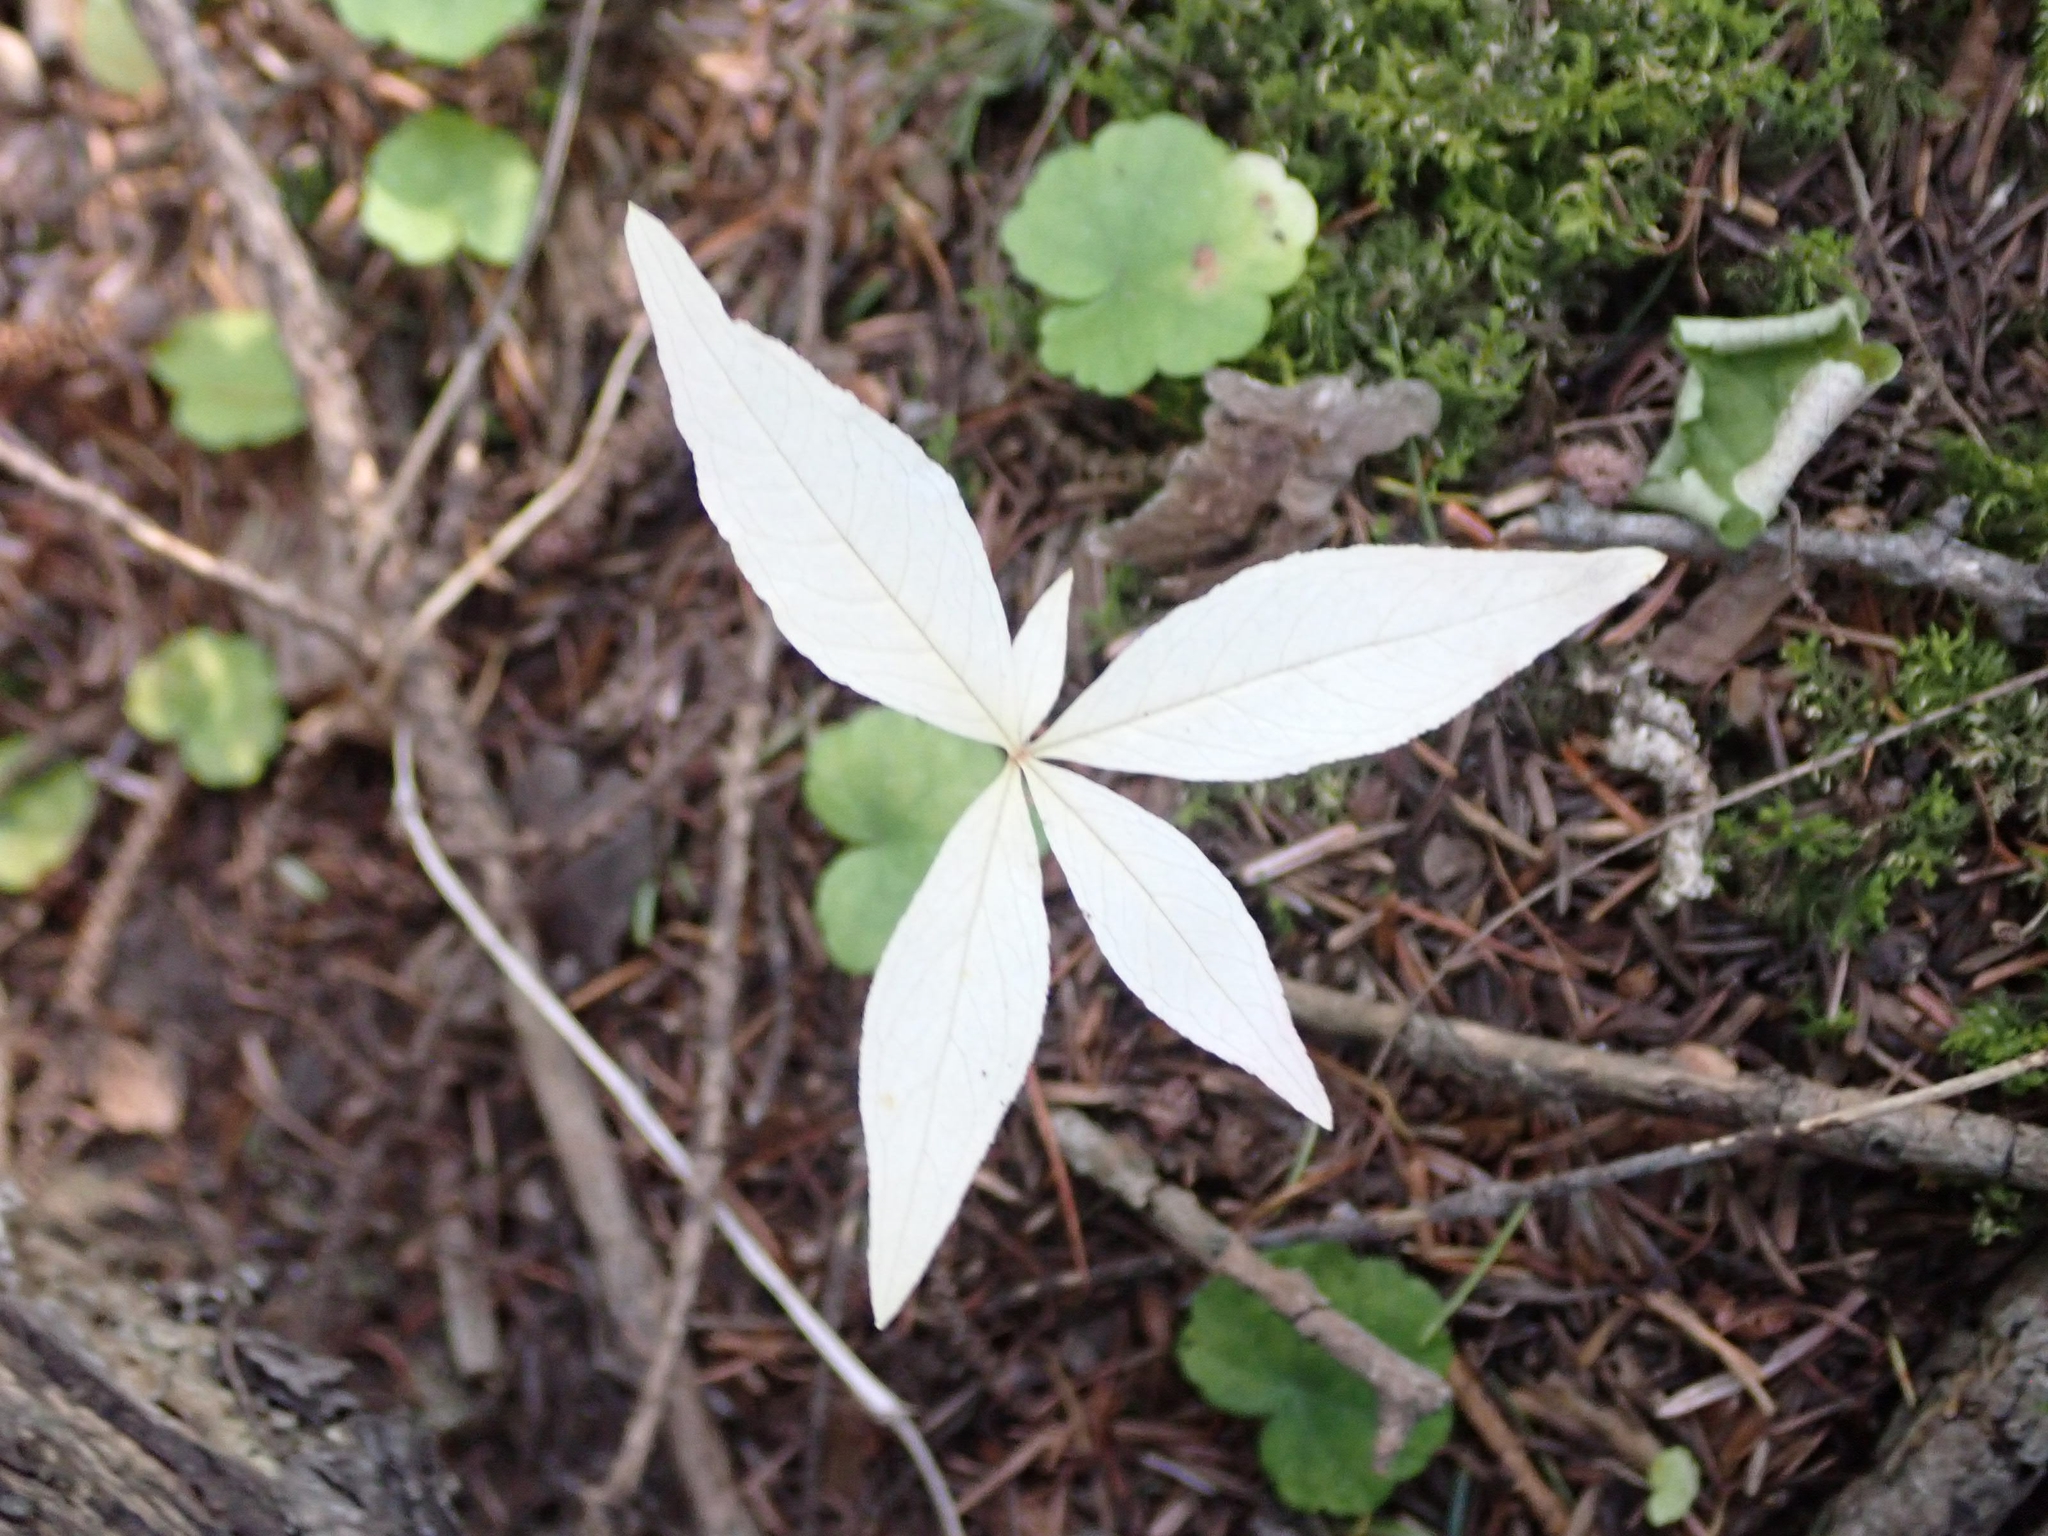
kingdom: Plantae
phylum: Tracheophyta
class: Magnoliopsida
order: Ericales
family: Primulaceae
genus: Lysimachia
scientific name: Lysimachia borealis
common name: American starflower
